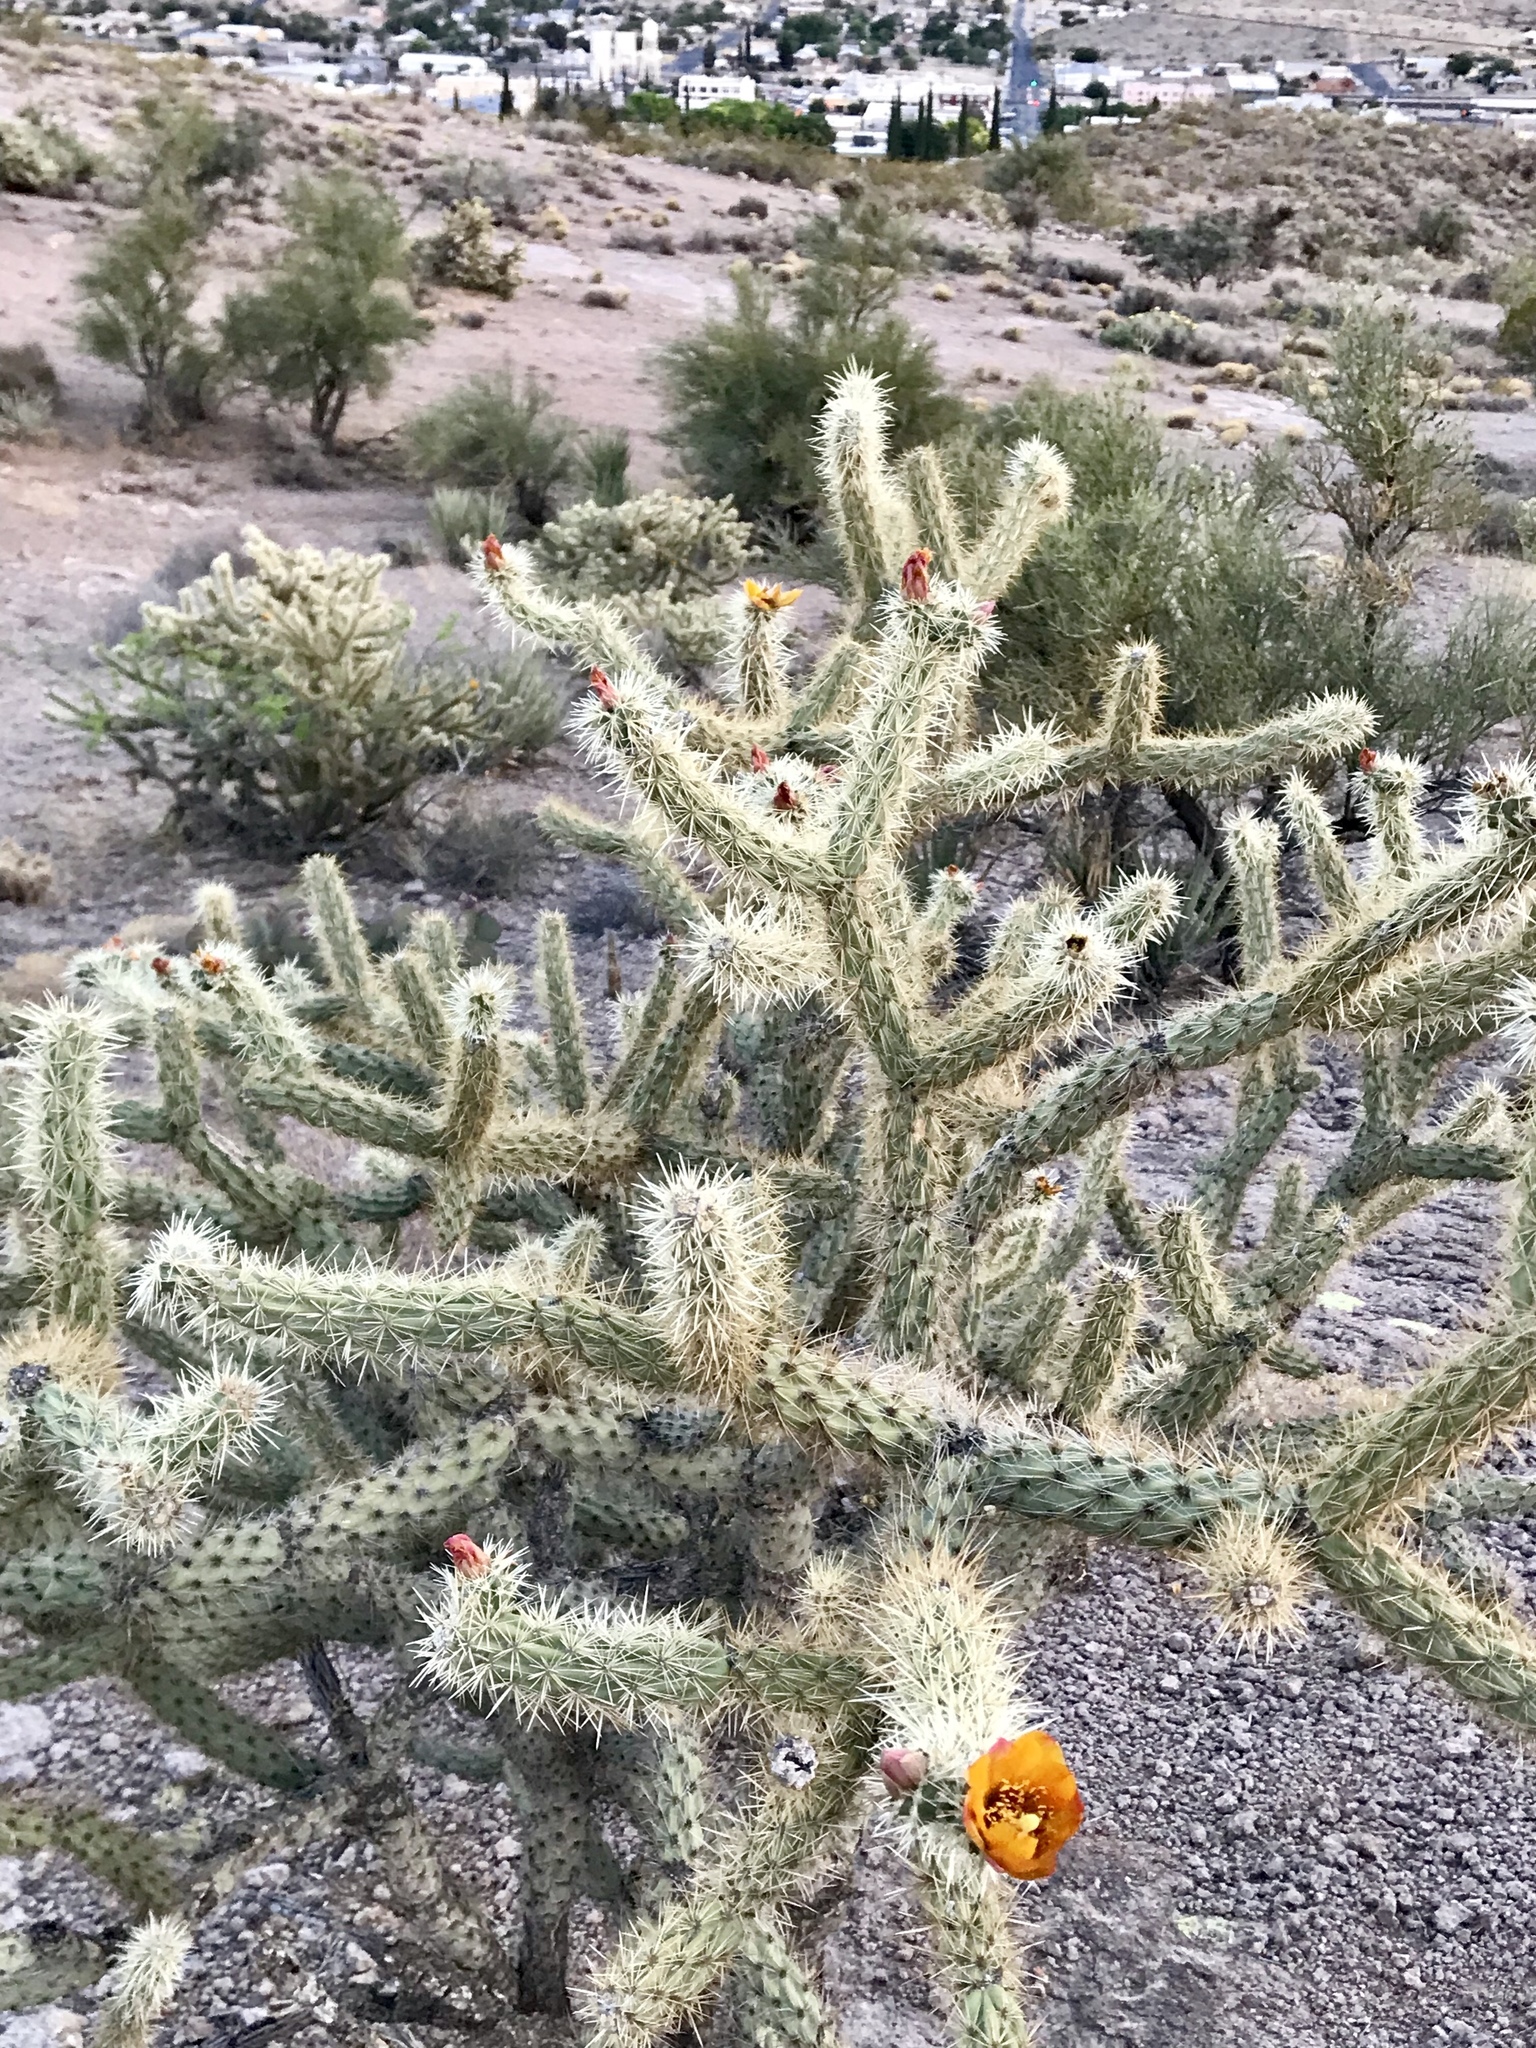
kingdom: Plantae
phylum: Tracheophyta
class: Magnoliopsida
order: Caryophyllales
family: Cactaceae
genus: Cylindropuntia
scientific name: Cylindropuntia acanthocarpa
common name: Buckhorn cholla
